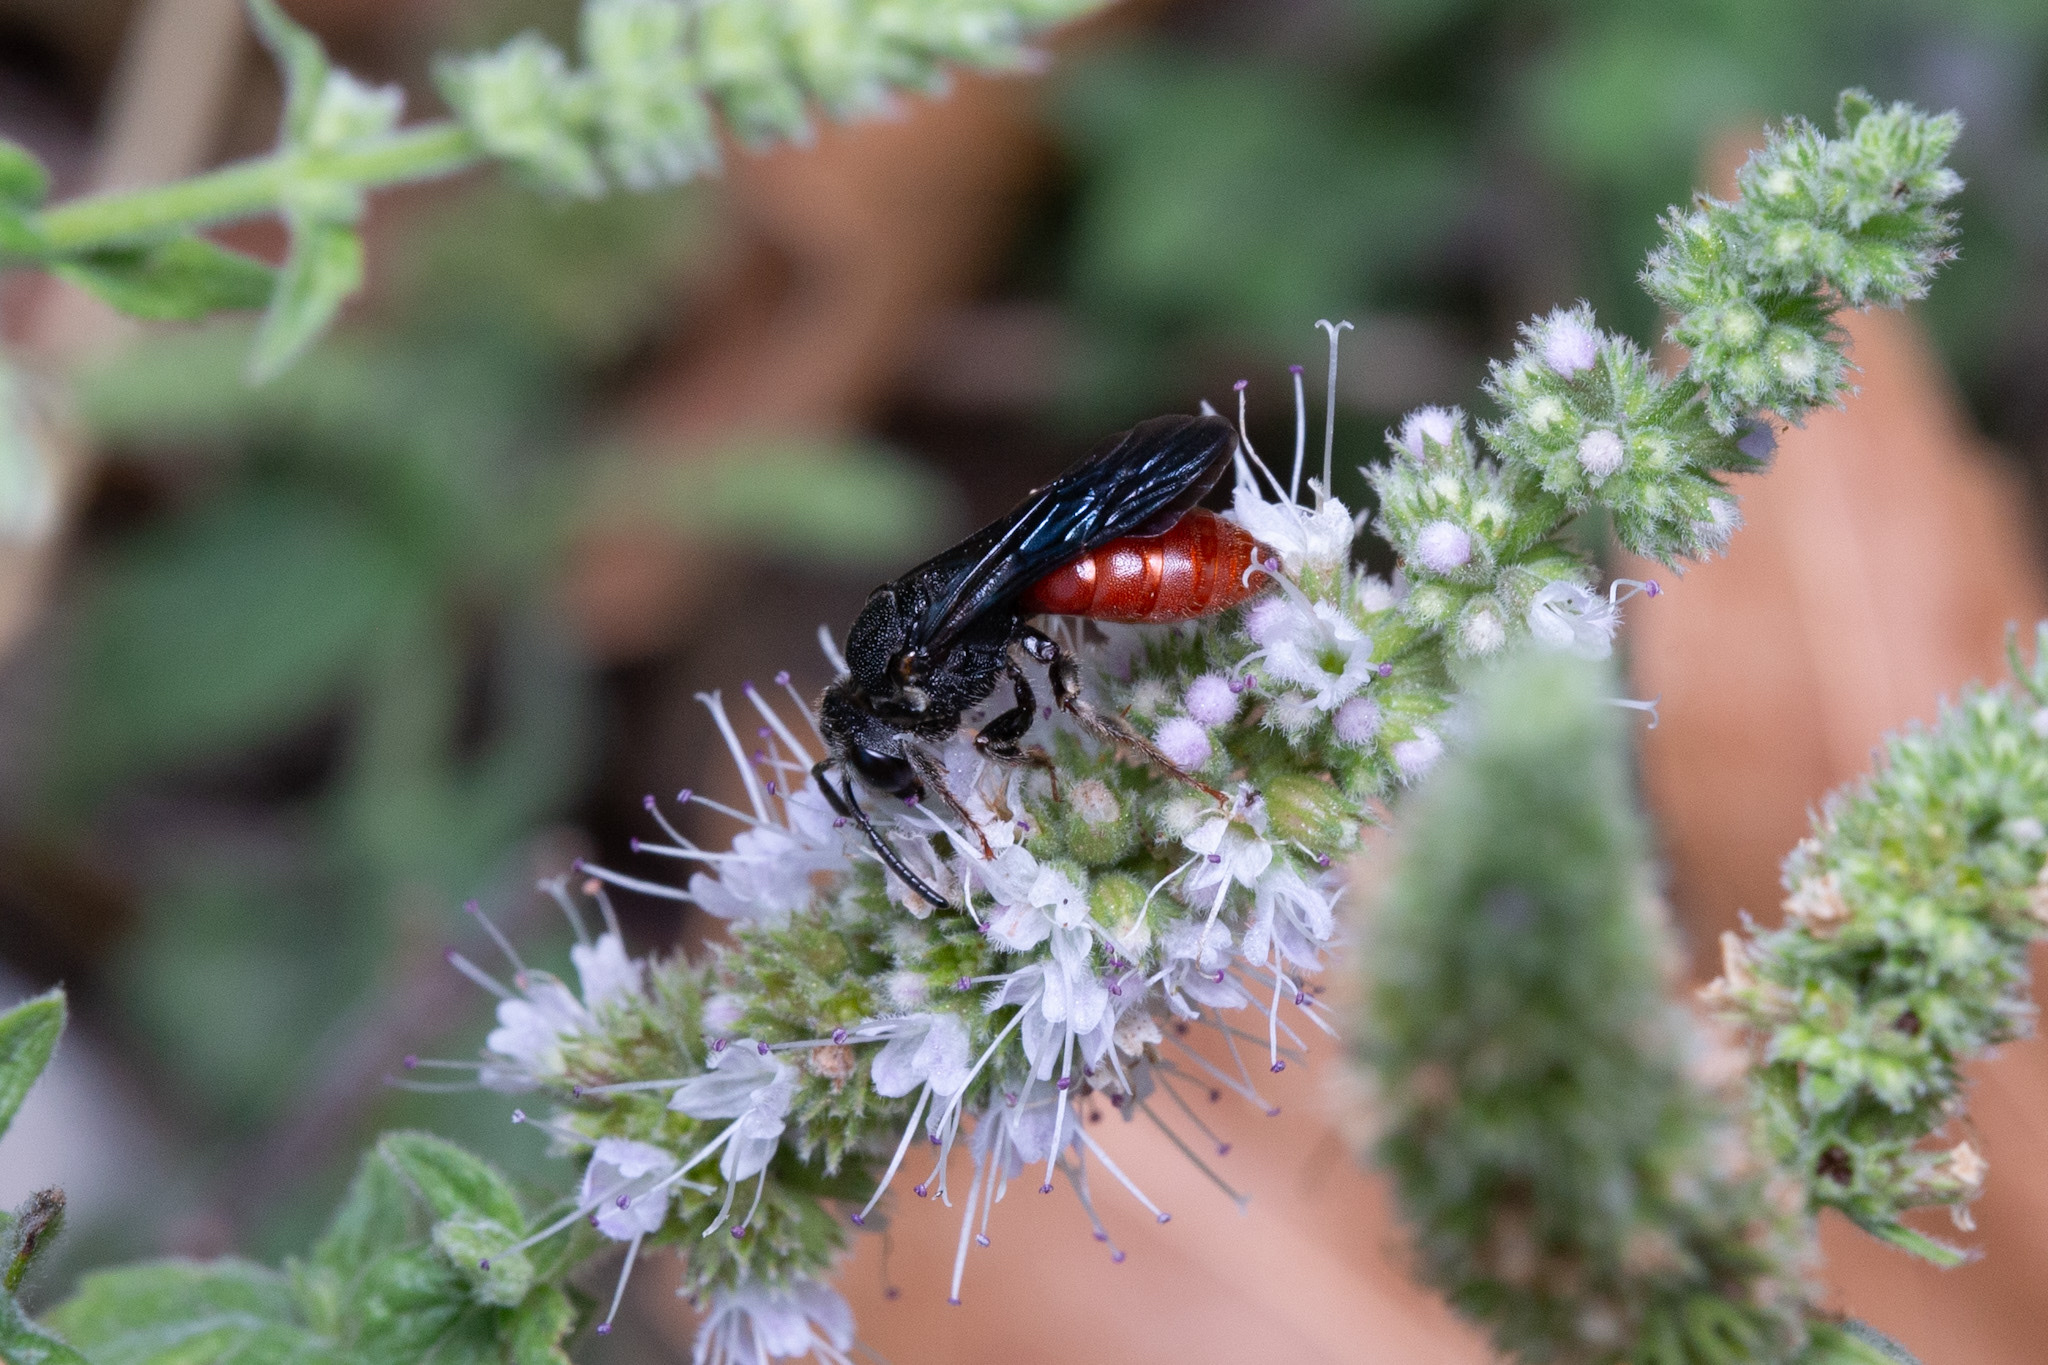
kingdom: Animalia
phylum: Arthropoda
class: Insecta
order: Hymenoptera
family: Halictidae
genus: Sphecodes
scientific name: Sphecodes albilabris
